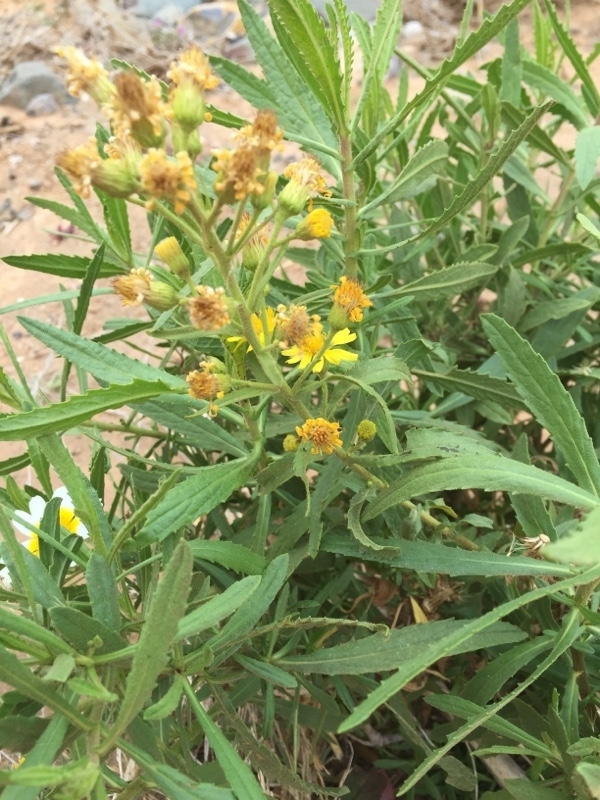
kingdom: Plantae
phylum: Tracheophyta
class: Magnoliopsida
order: Asterales
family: Asteraceae
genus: Dittrichia
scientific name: Dittrichia viscosa
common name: Woody fleabane
